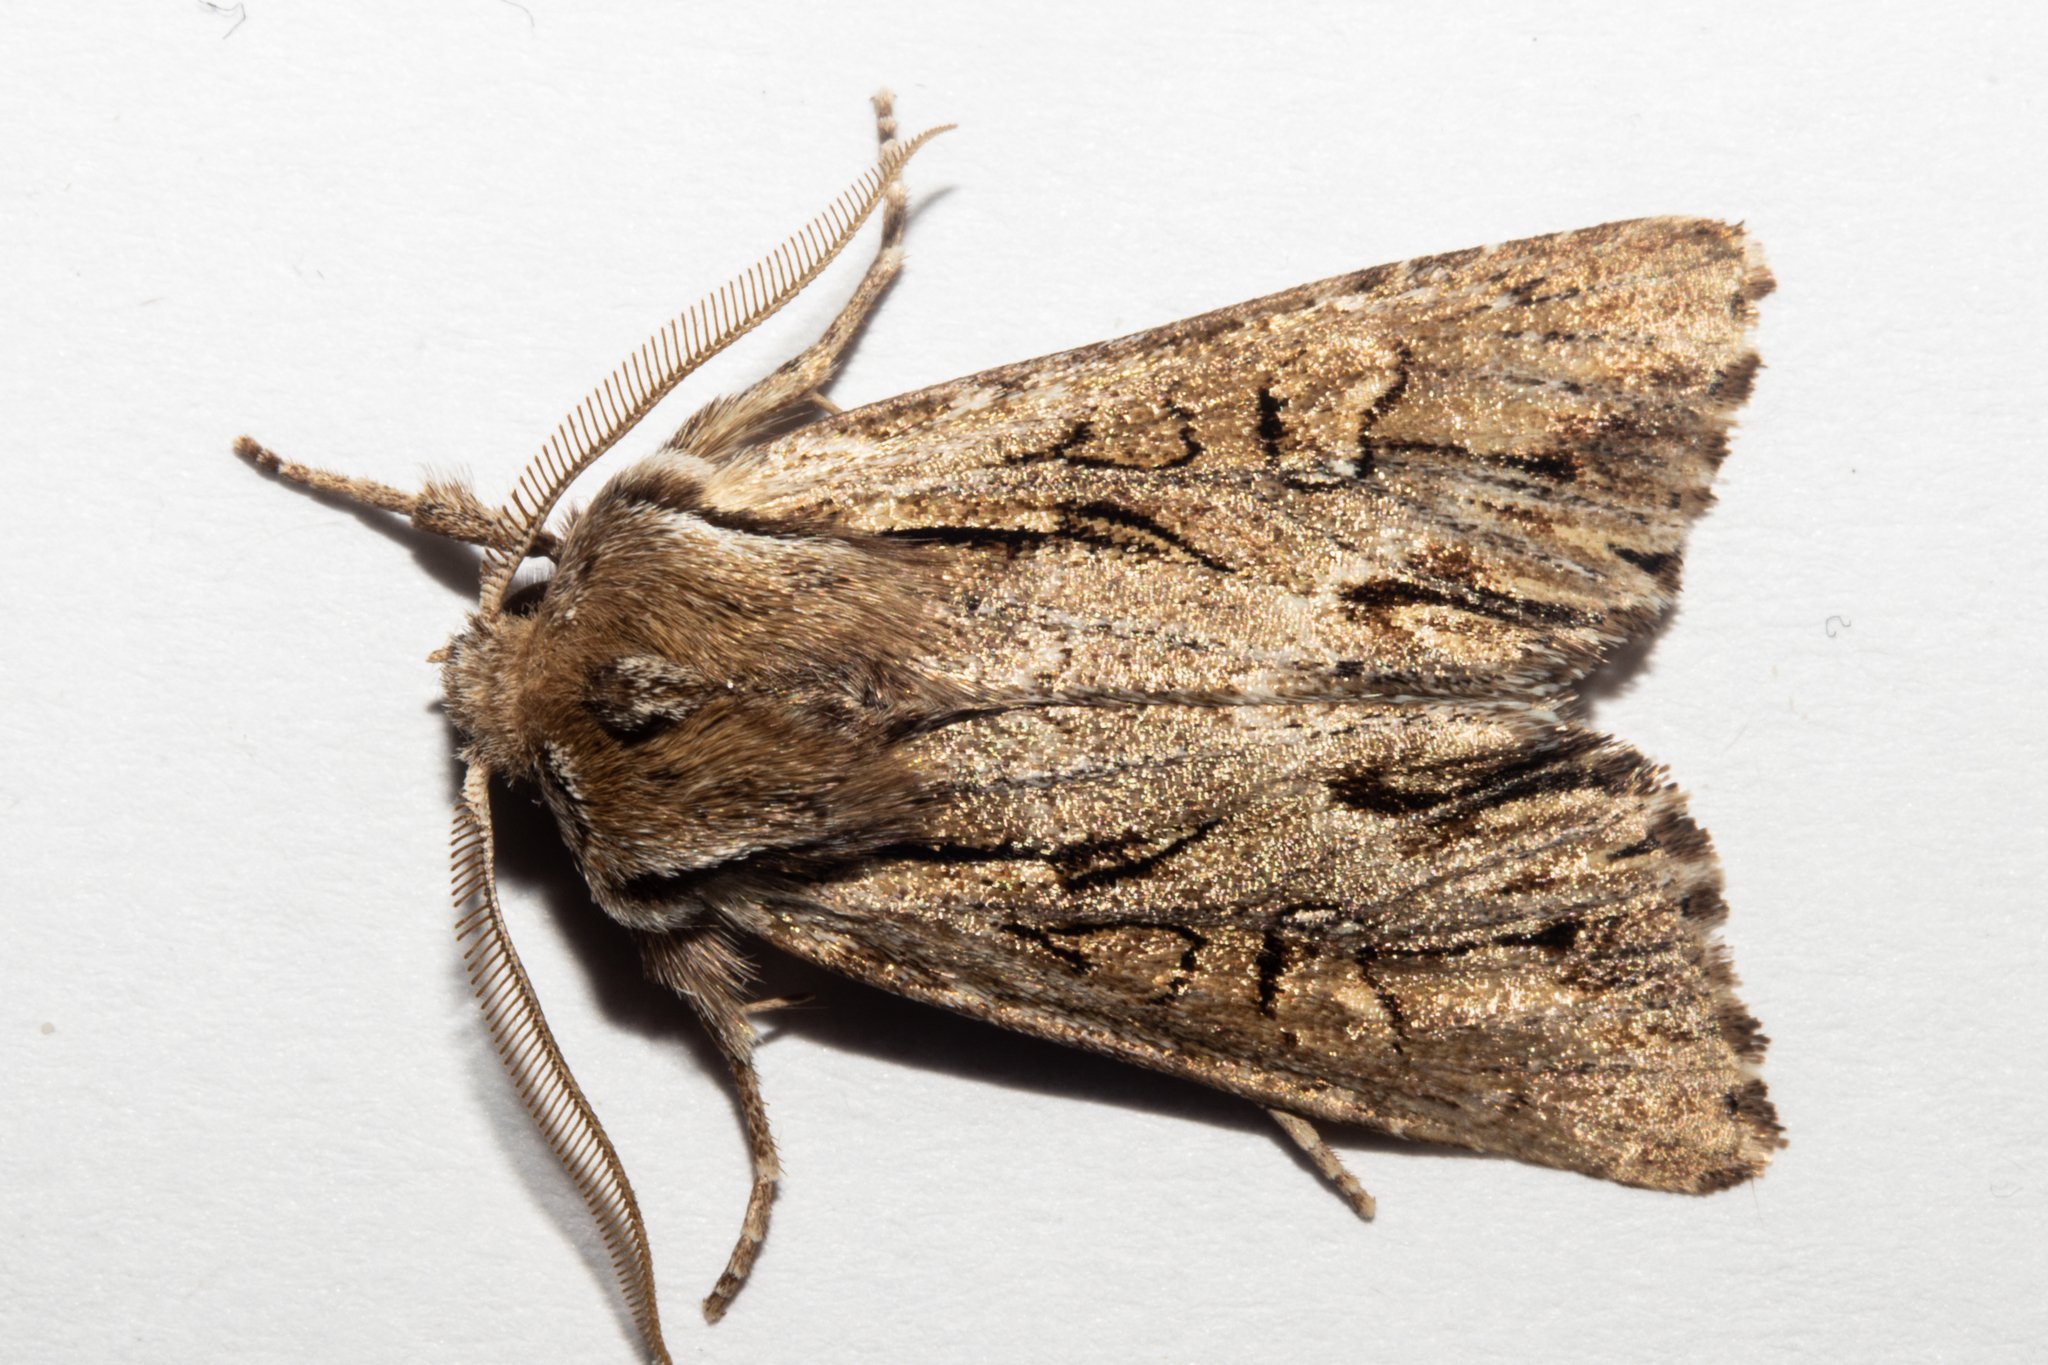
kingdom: Animalia
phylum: Arthropoda
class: Insecta
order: Lepidoptera
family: Noctuidae
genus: Ichneutica
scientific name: Ichneutica
